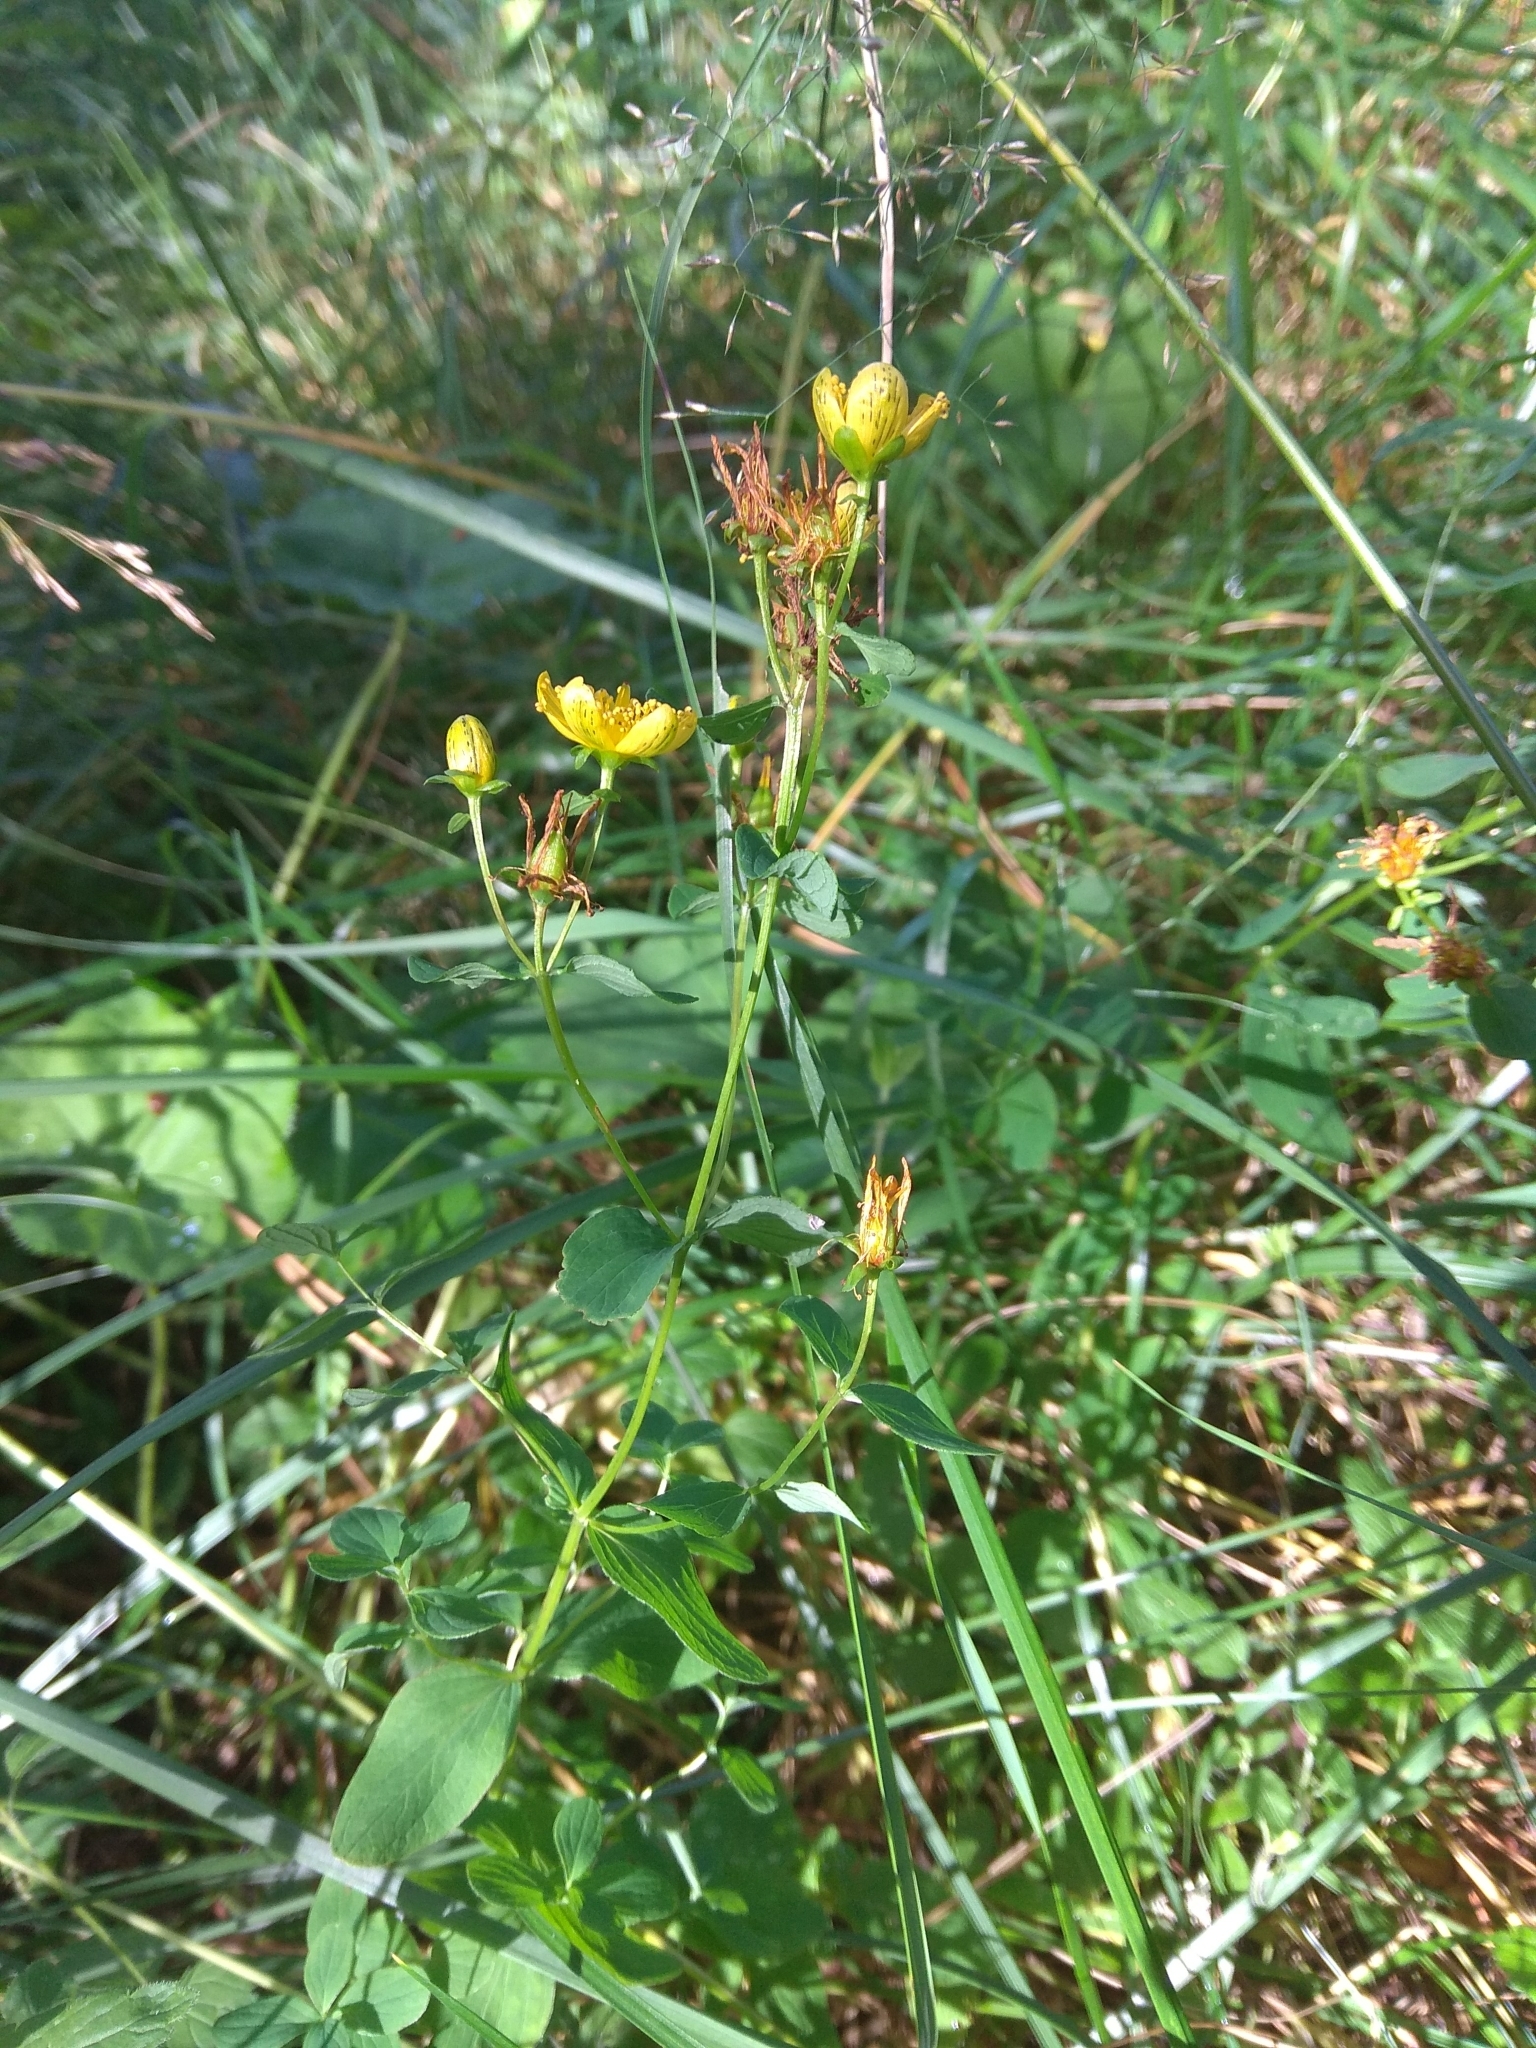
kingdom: Plantae
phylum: Tracheophyta
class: Magnoliopsida
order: Malpighiales
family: Hypericaceae
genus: Hypericum
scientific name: Hypericum maculatum
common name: Imperforate st. john's-wort
